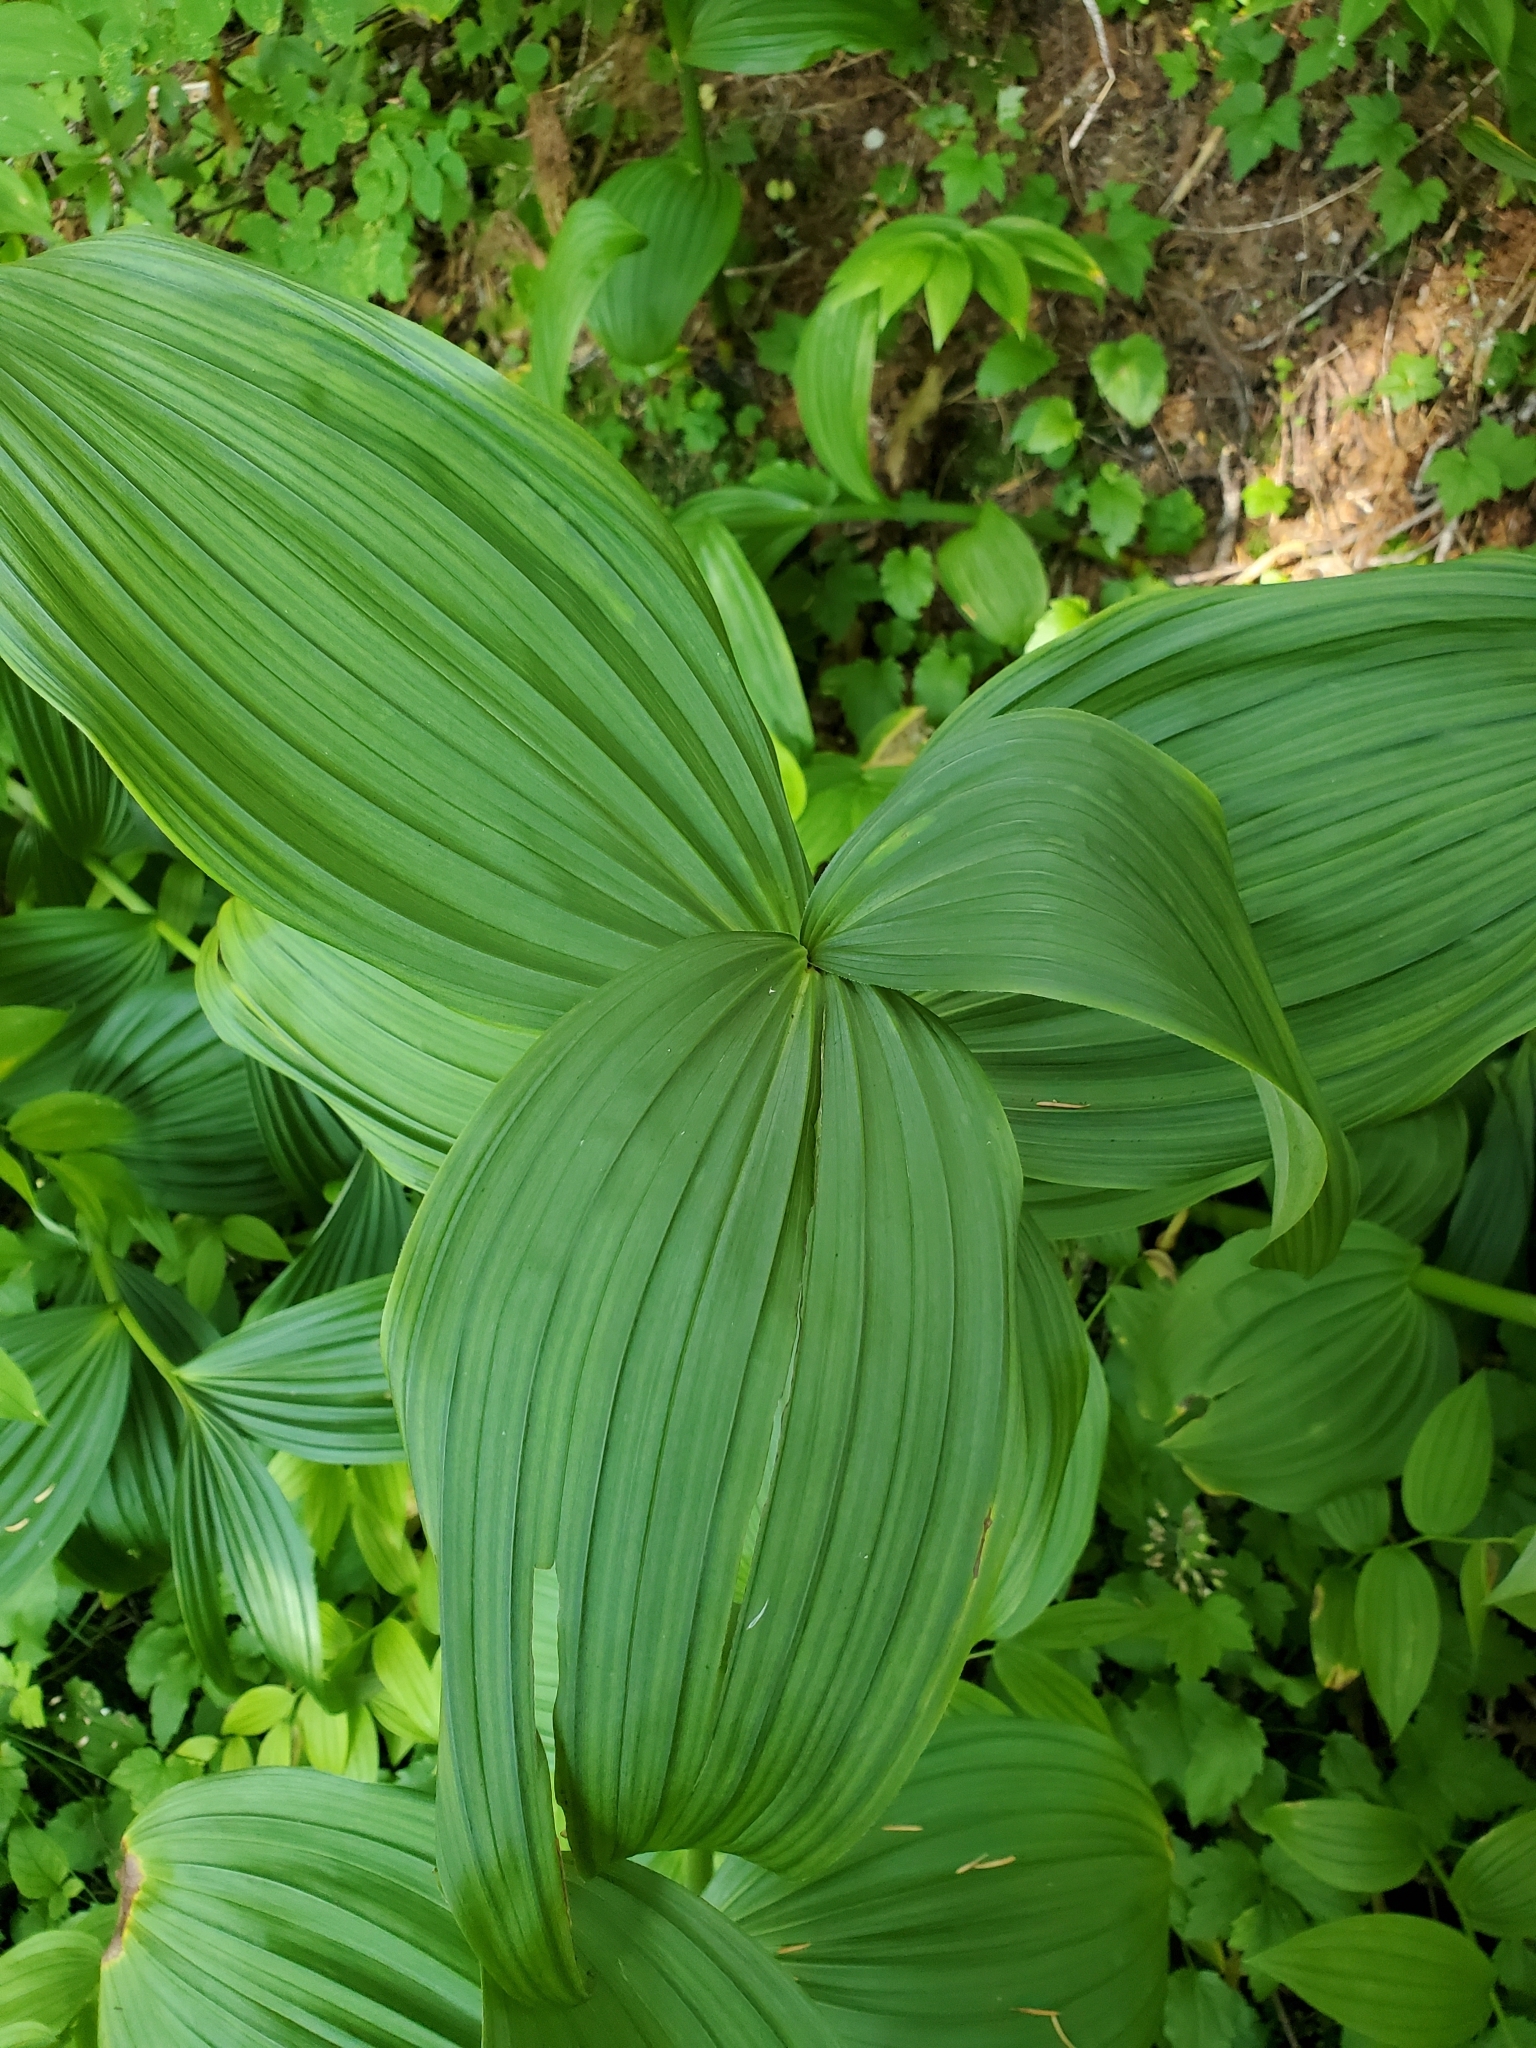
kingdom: Plantae
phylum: Tracheophyta
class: Liliopsida
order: Liliales
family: Melanthiaceae
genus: Veratrum
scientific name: Veratrum viride
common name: American false hellebore
